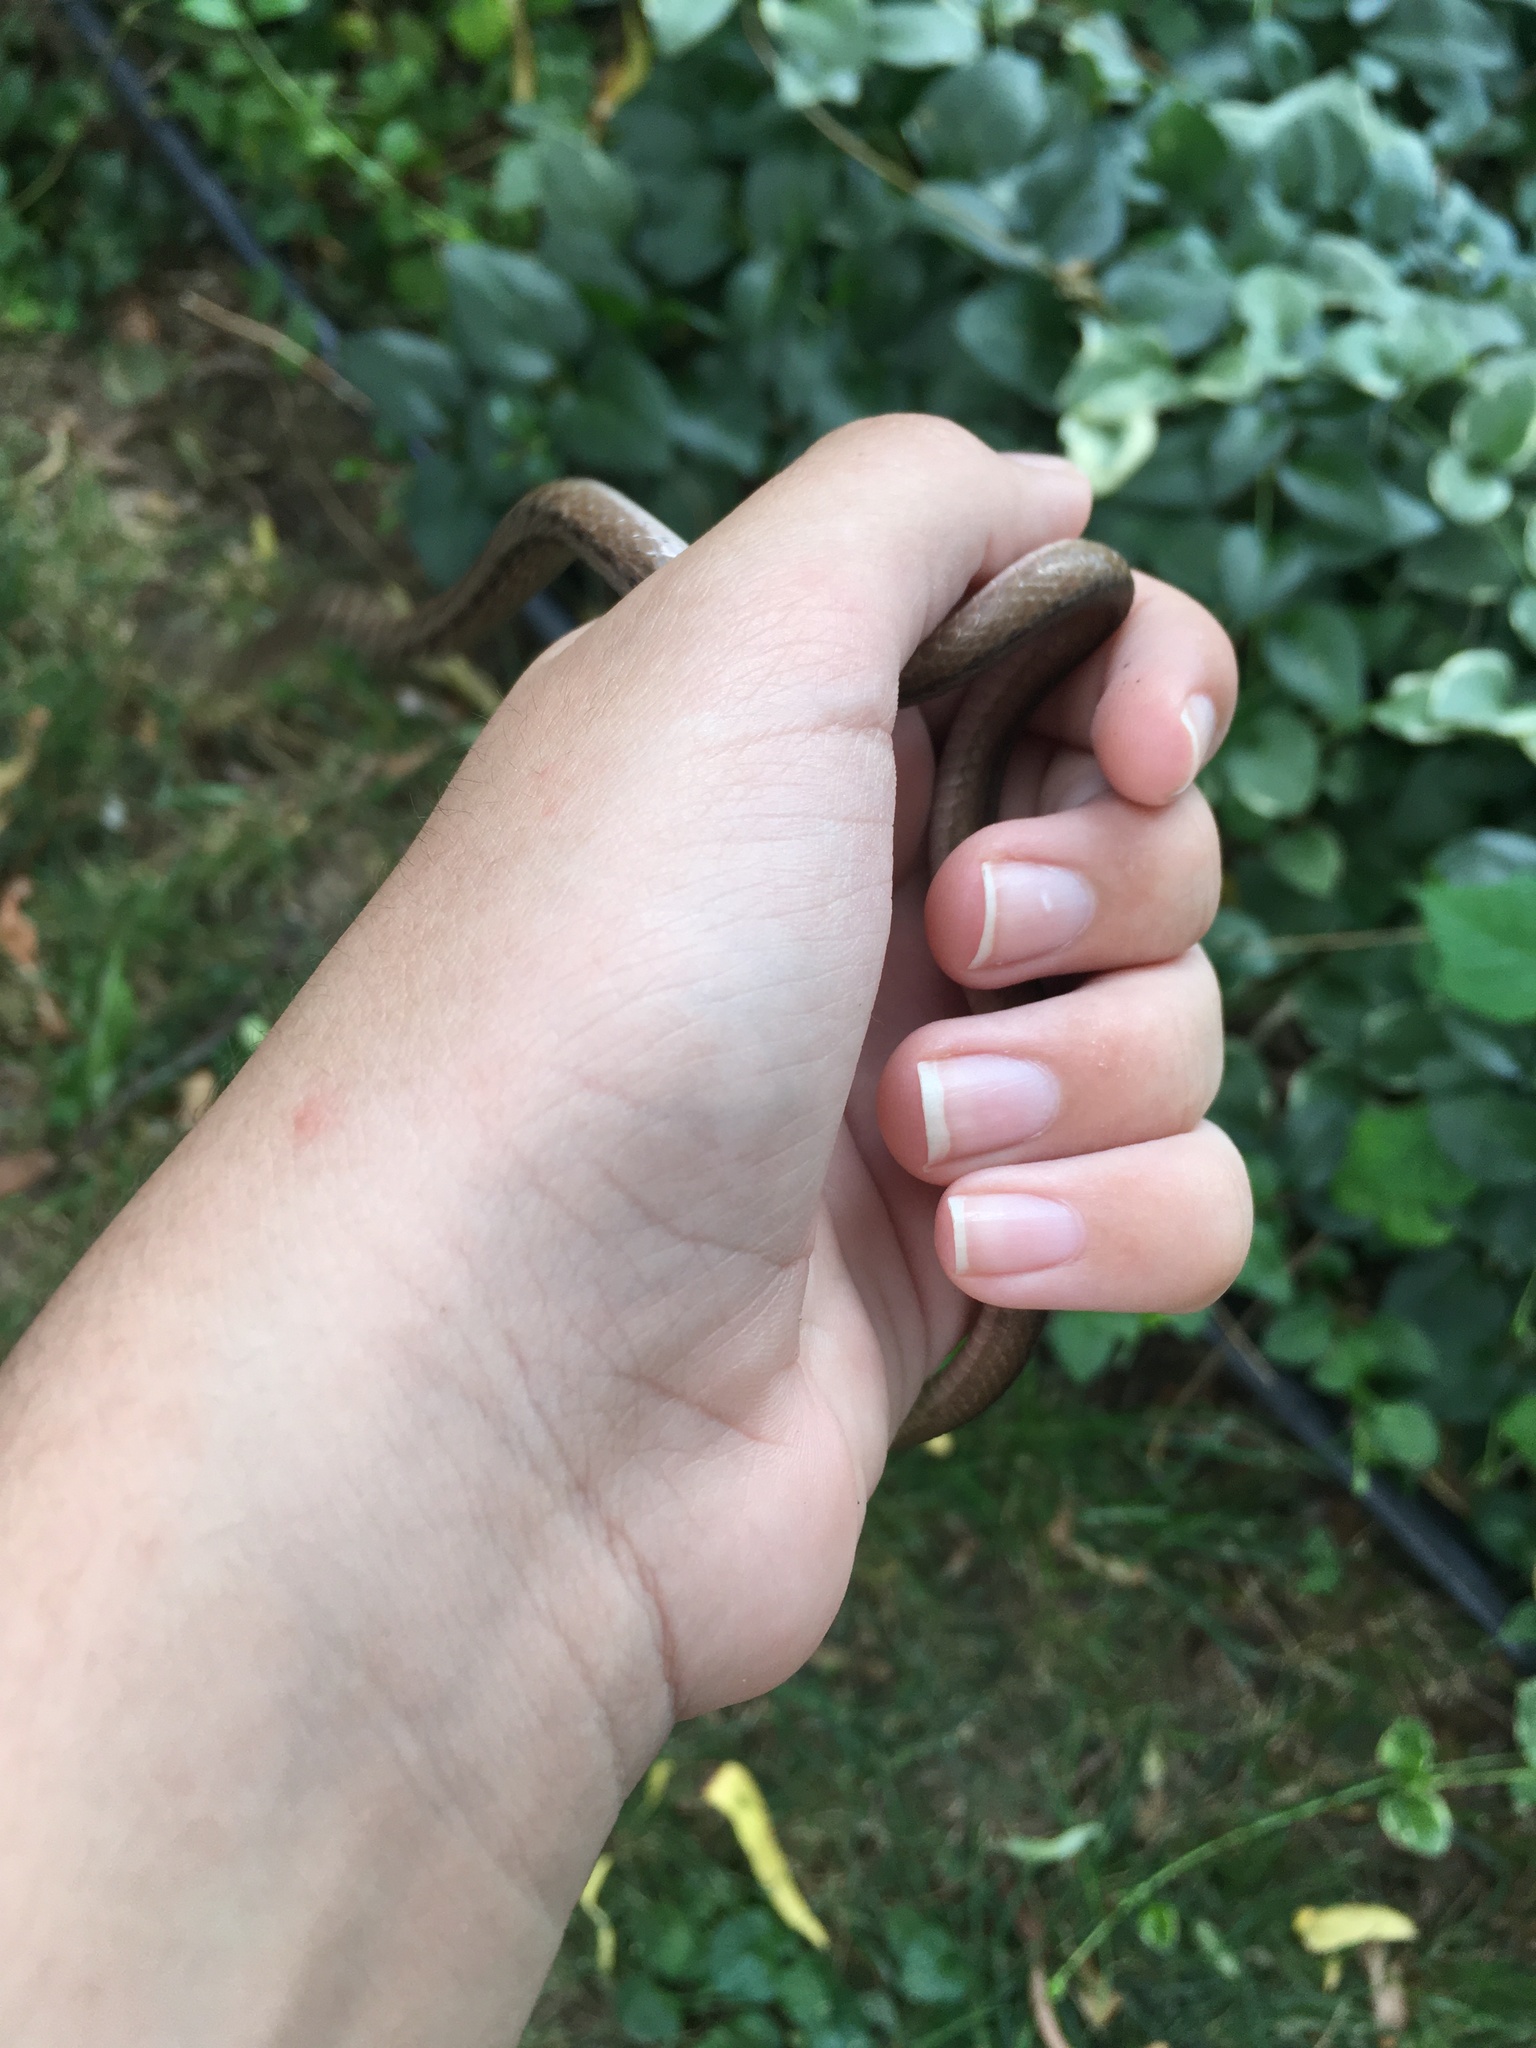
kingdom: Animalia
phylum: Chordata
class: Squamata
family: Colubridae
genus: Storeria
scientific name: Storeria dekayi
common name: (dekay’s) brown snake
